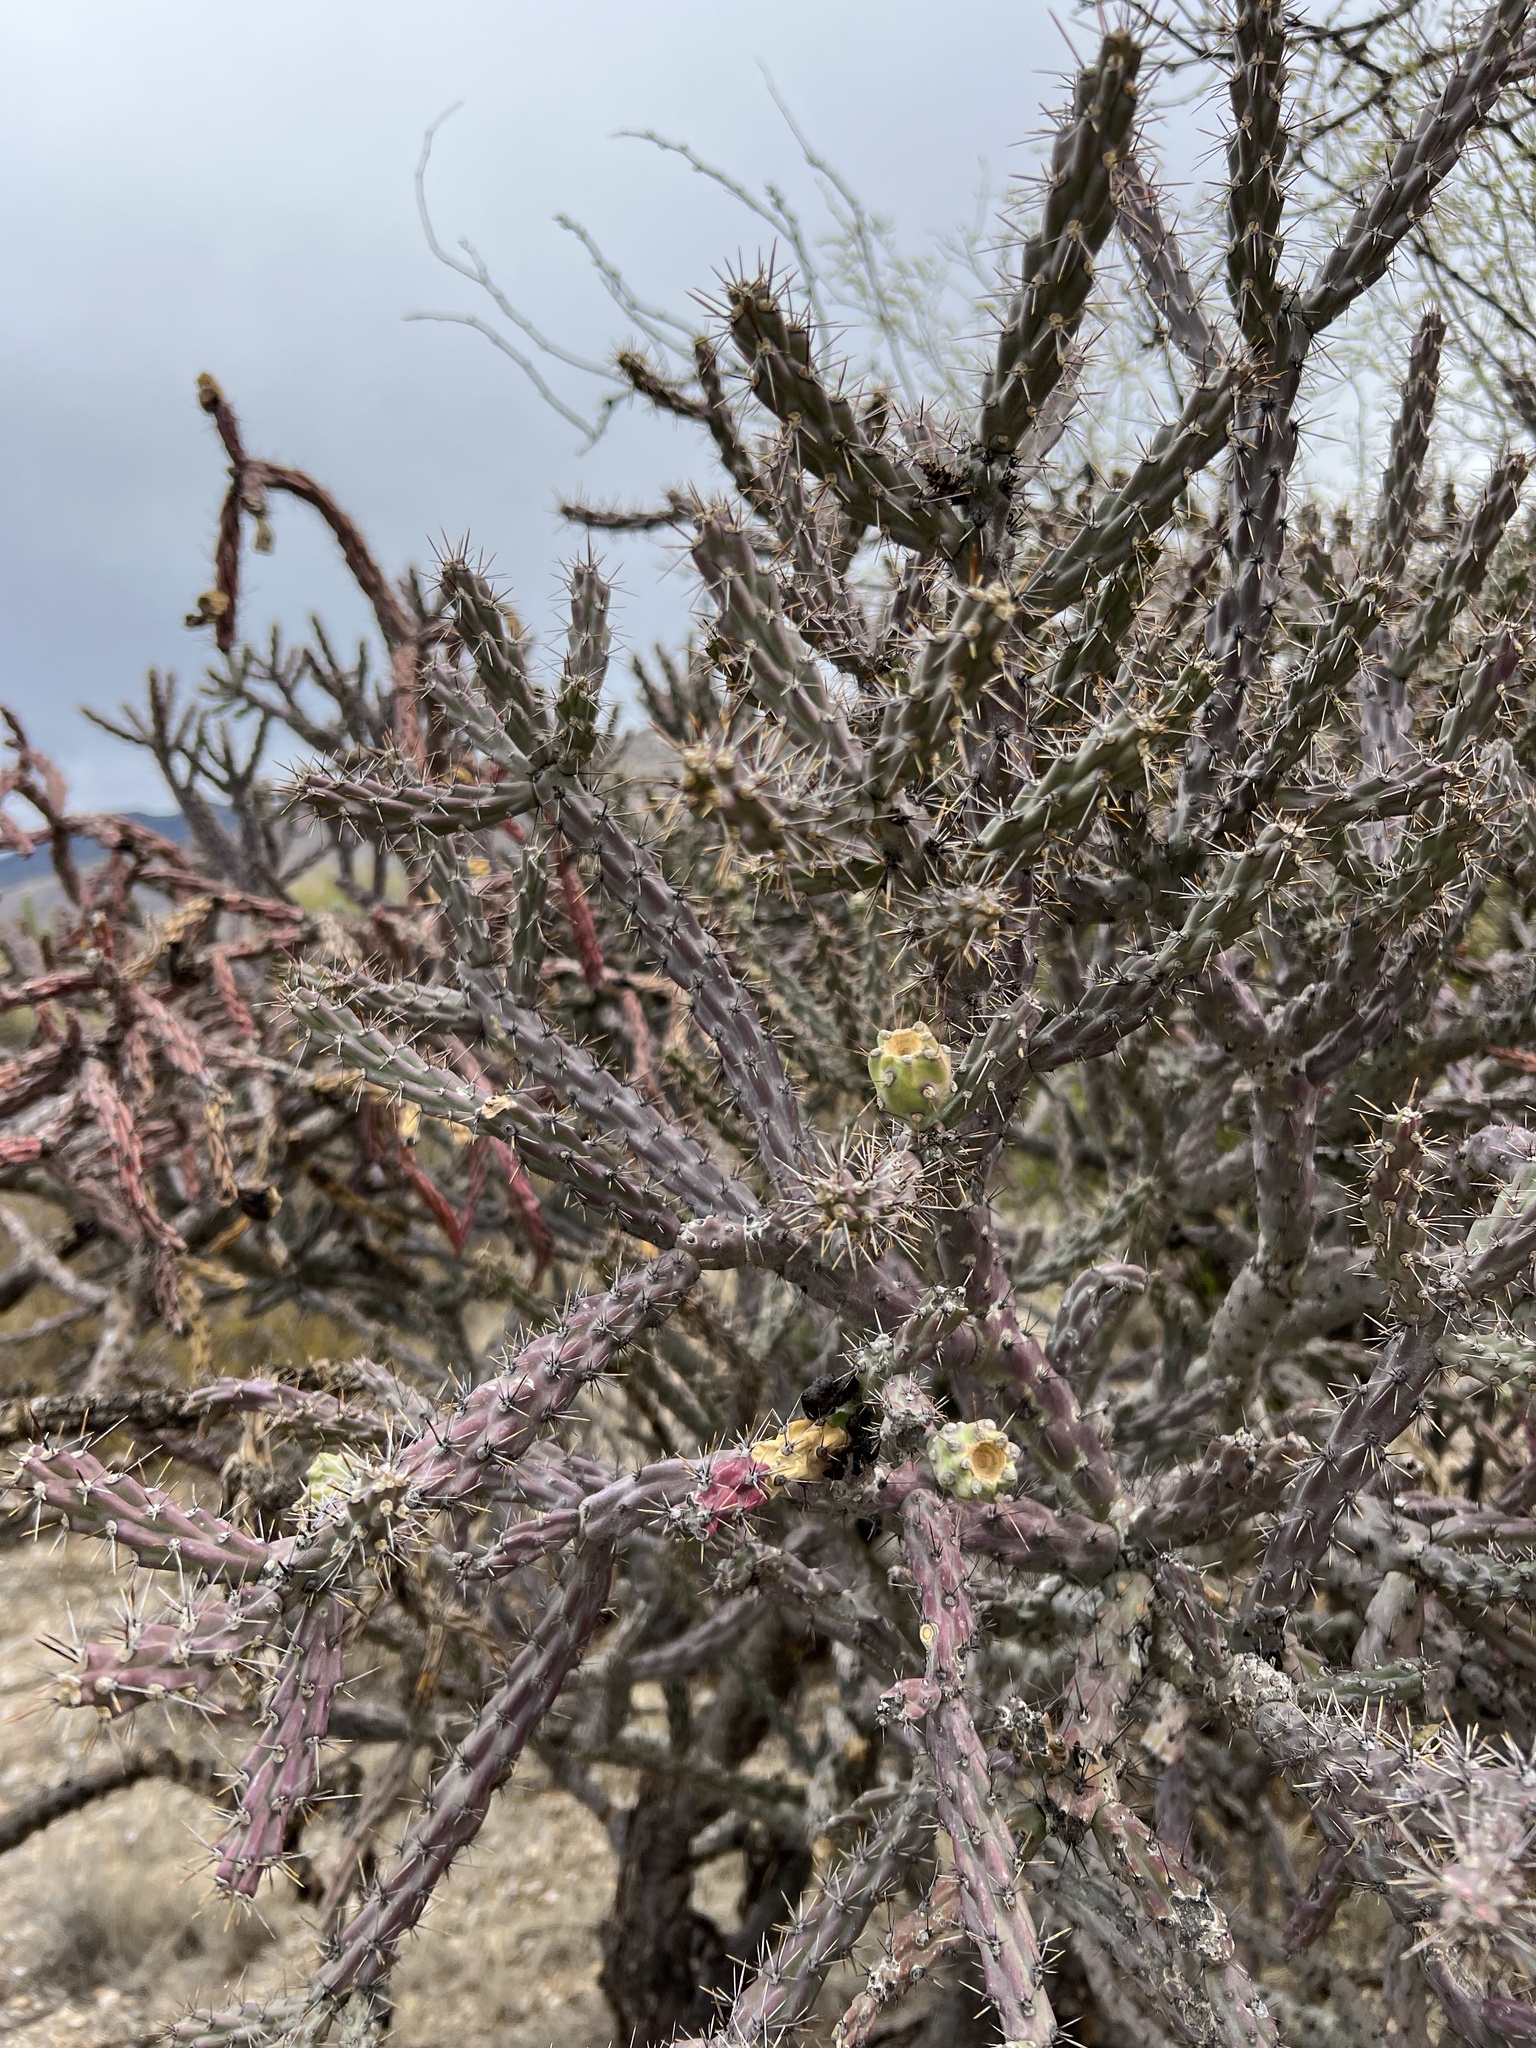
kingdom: Plantae
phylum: Tracheophyta
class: Magnoliopsida
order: Caryophyllales
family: Cactaceae
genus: Cylindropuntia
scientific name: Cylindropuntia thurberi
